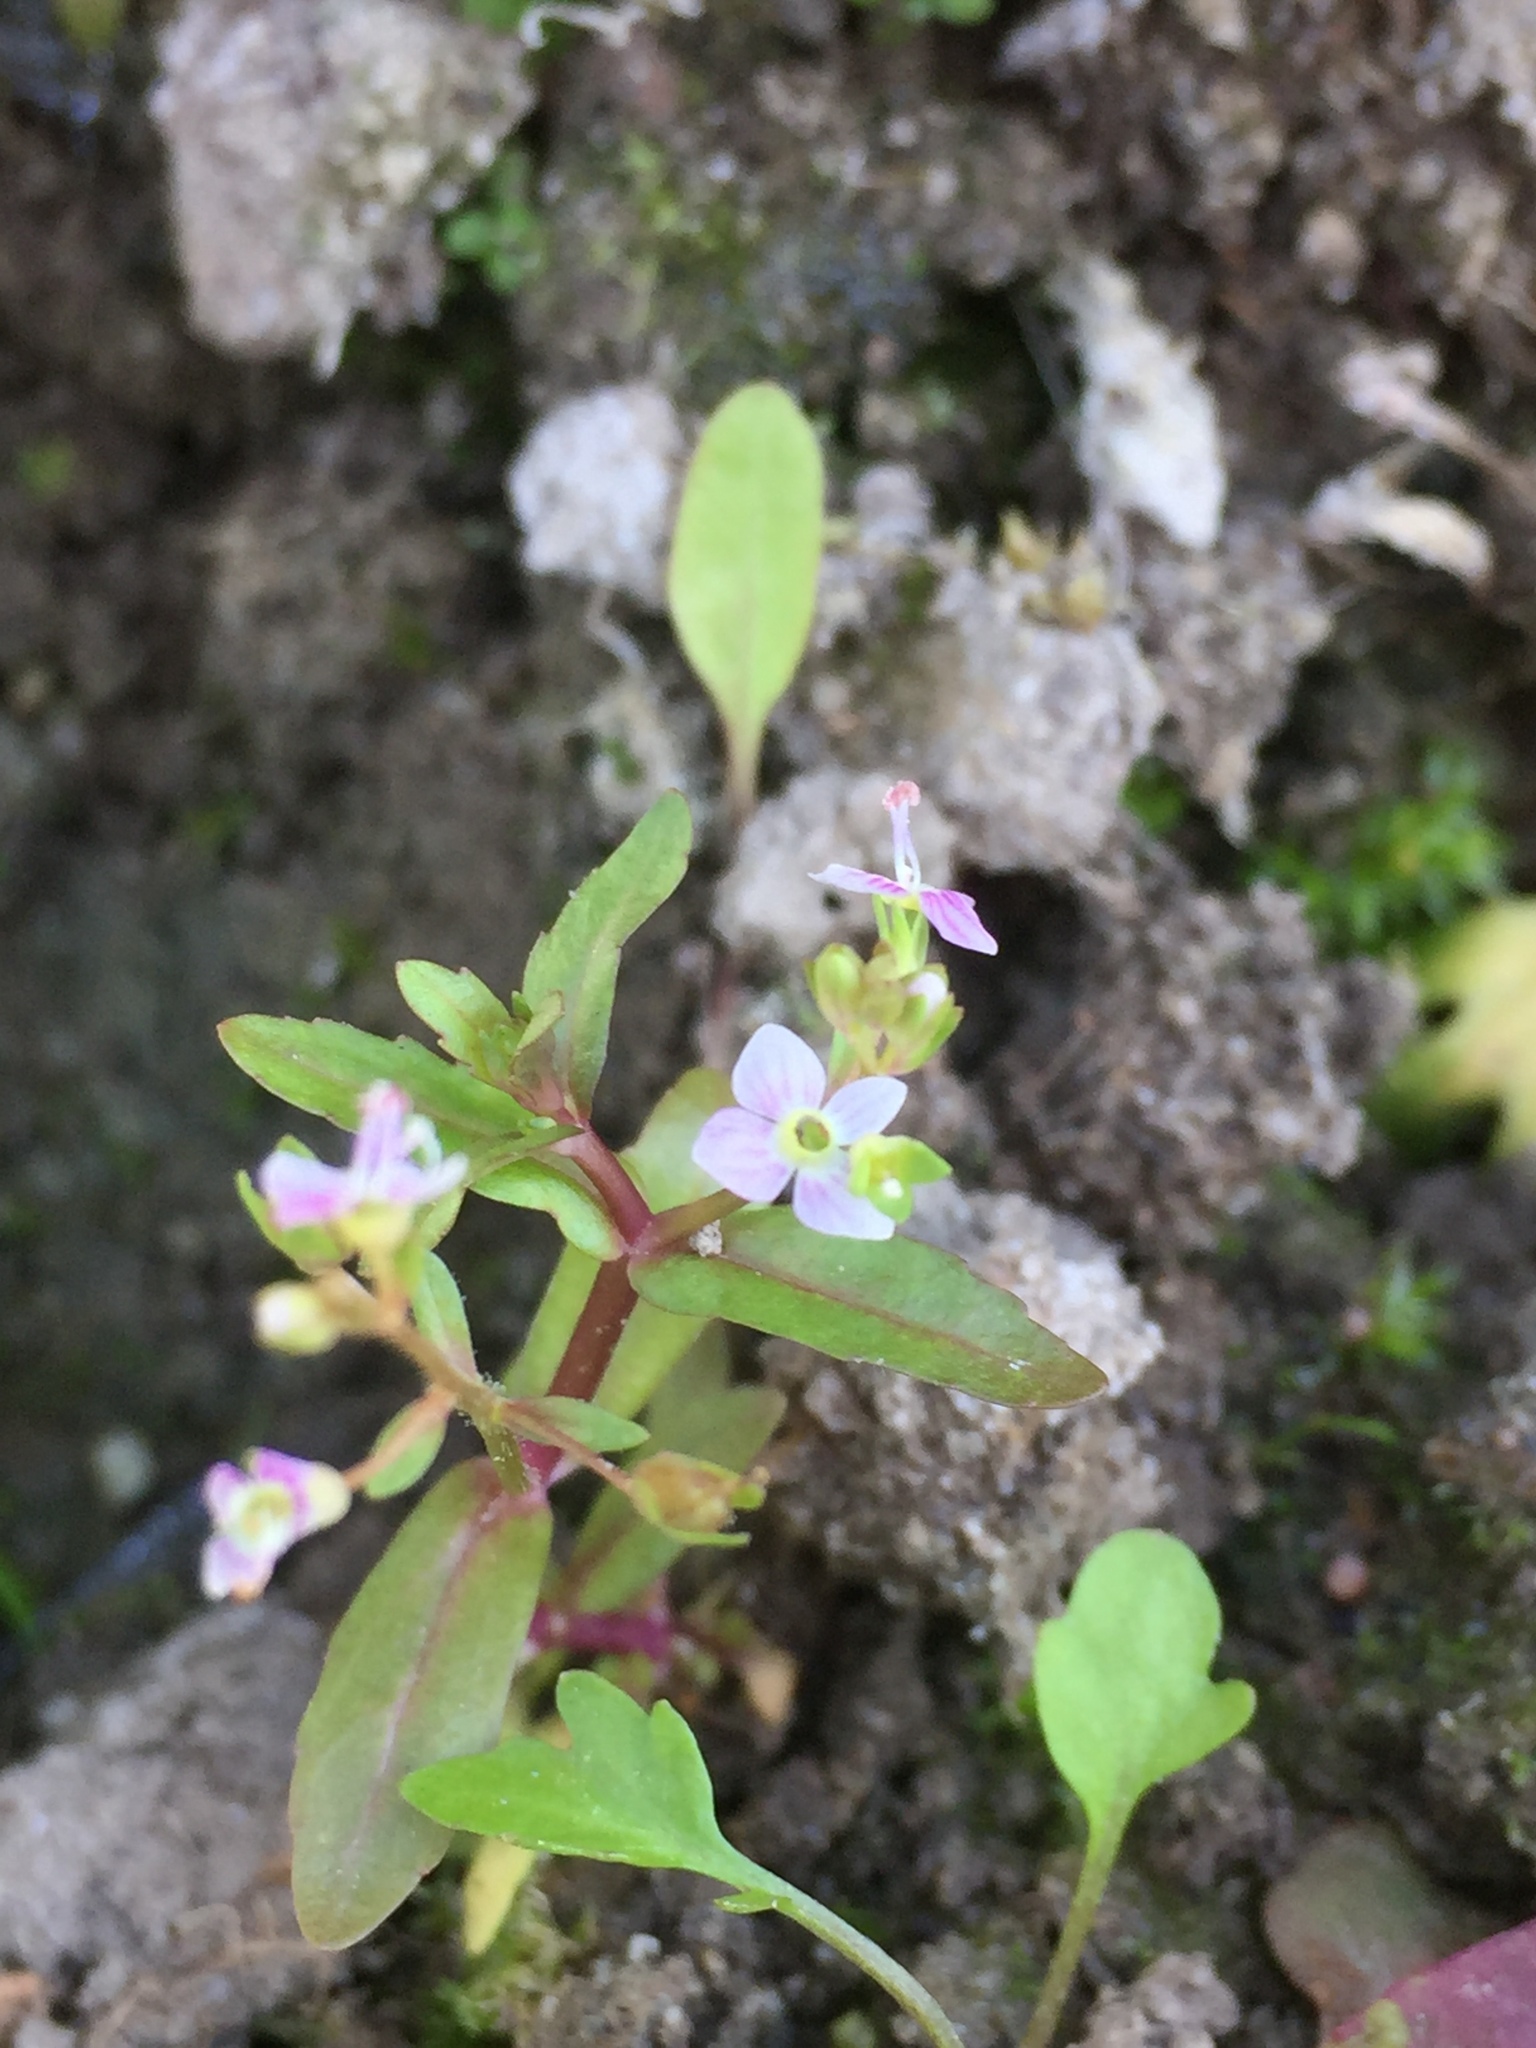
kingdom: Plantae
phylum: Tracheophyta
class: Magnoliopsida
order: Lamiales
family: Plantaginaceae
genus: Veronica
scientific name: Veronica catenata
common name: Pink water-speedwell
